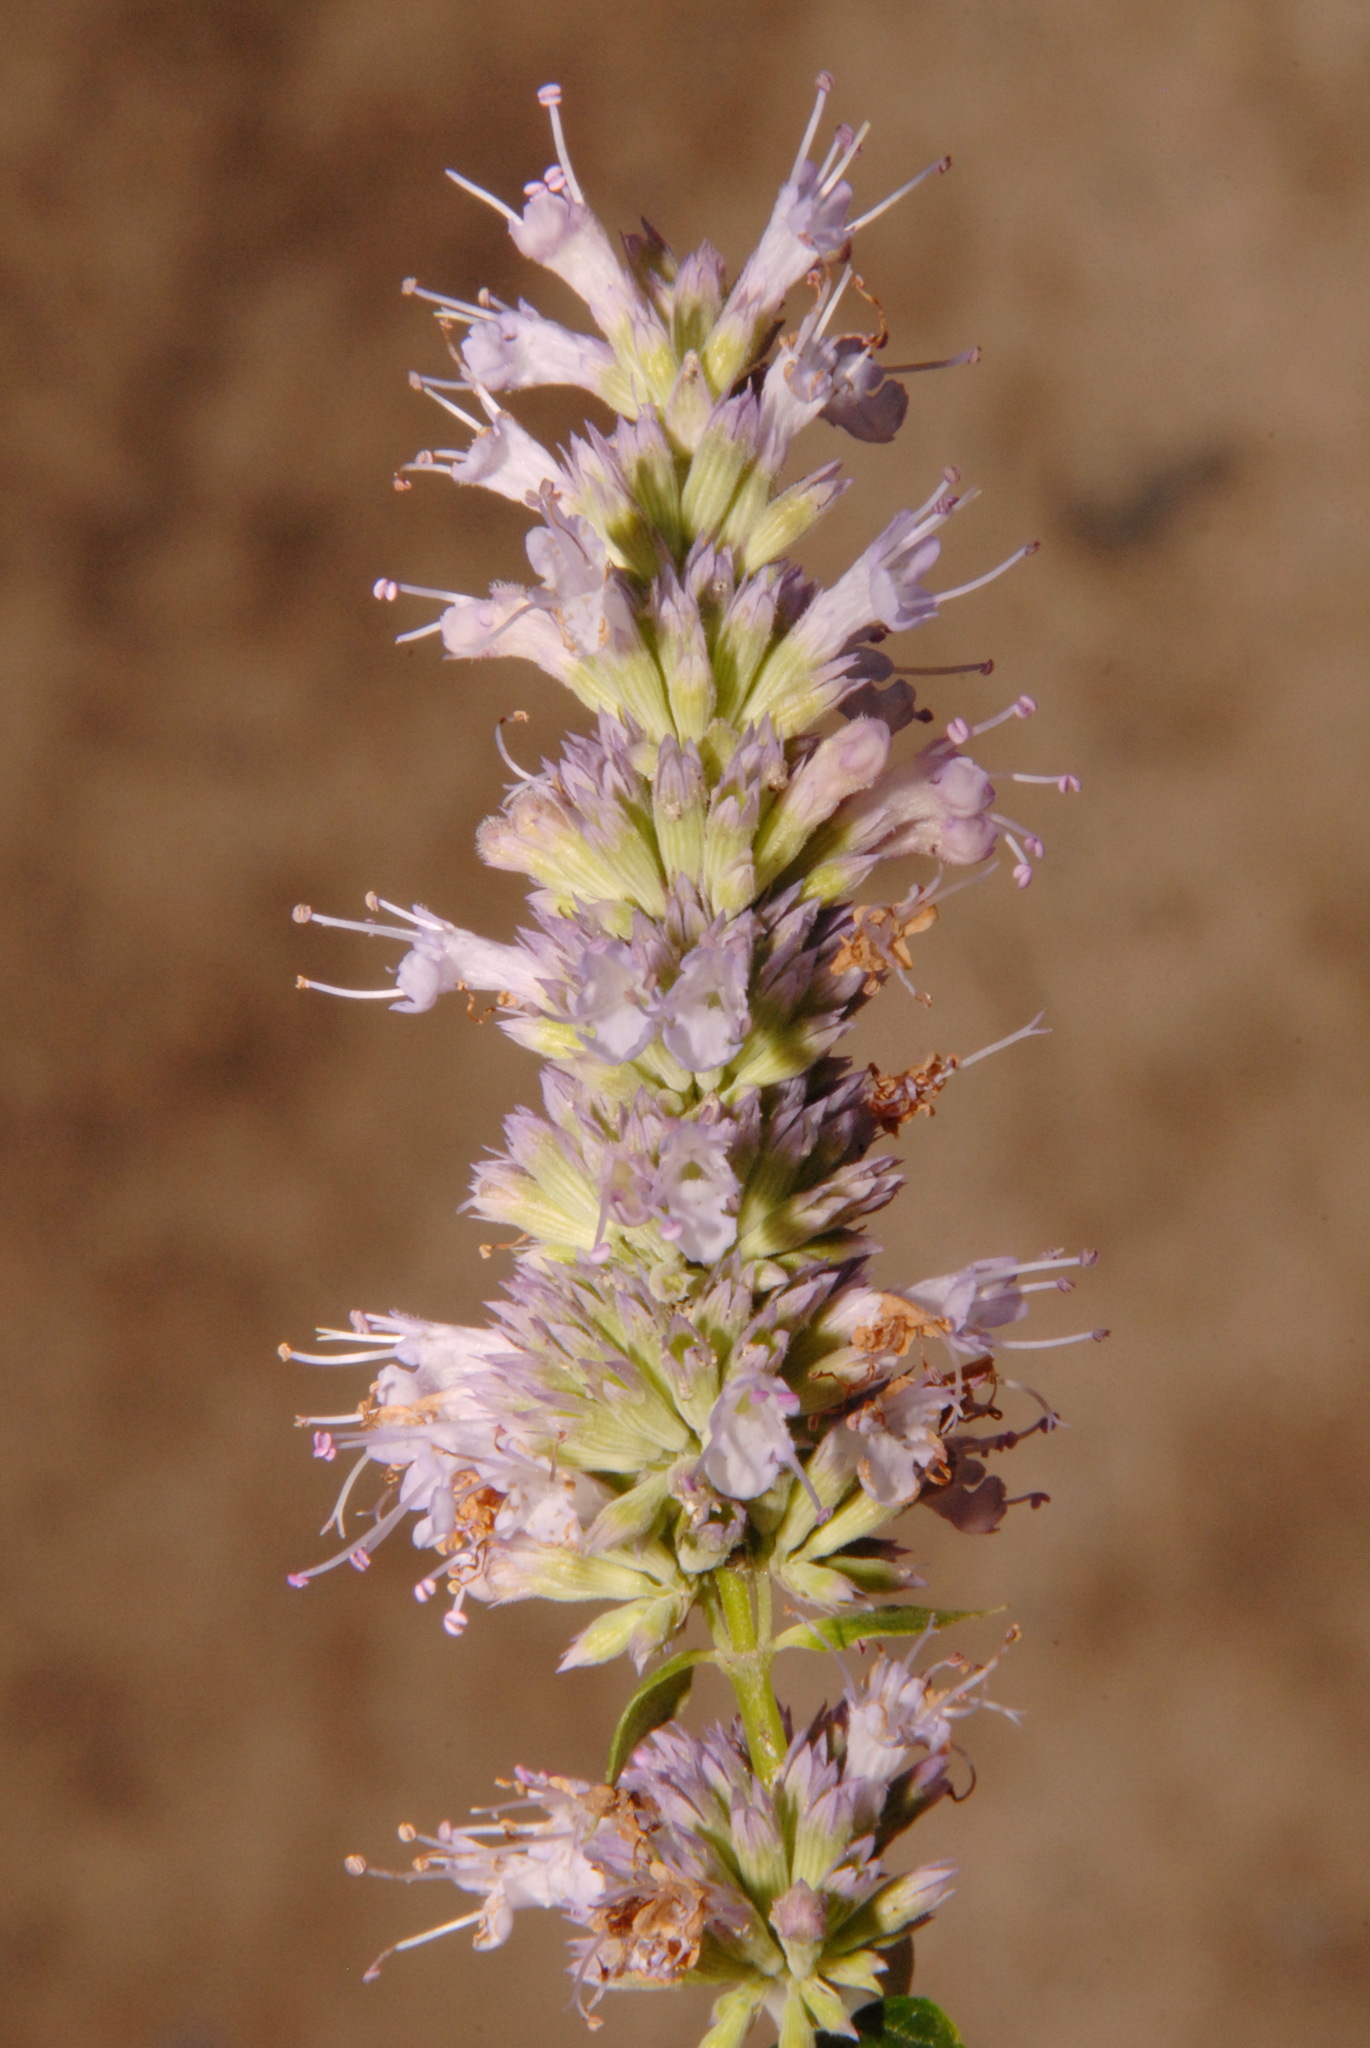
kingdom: Plantae
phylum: Tracheophyta
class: Magnoliopsida
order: Lamiales
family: Lamiaceae
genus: Agastache
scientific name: Agastache foeniculum
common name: Anise hyssop
